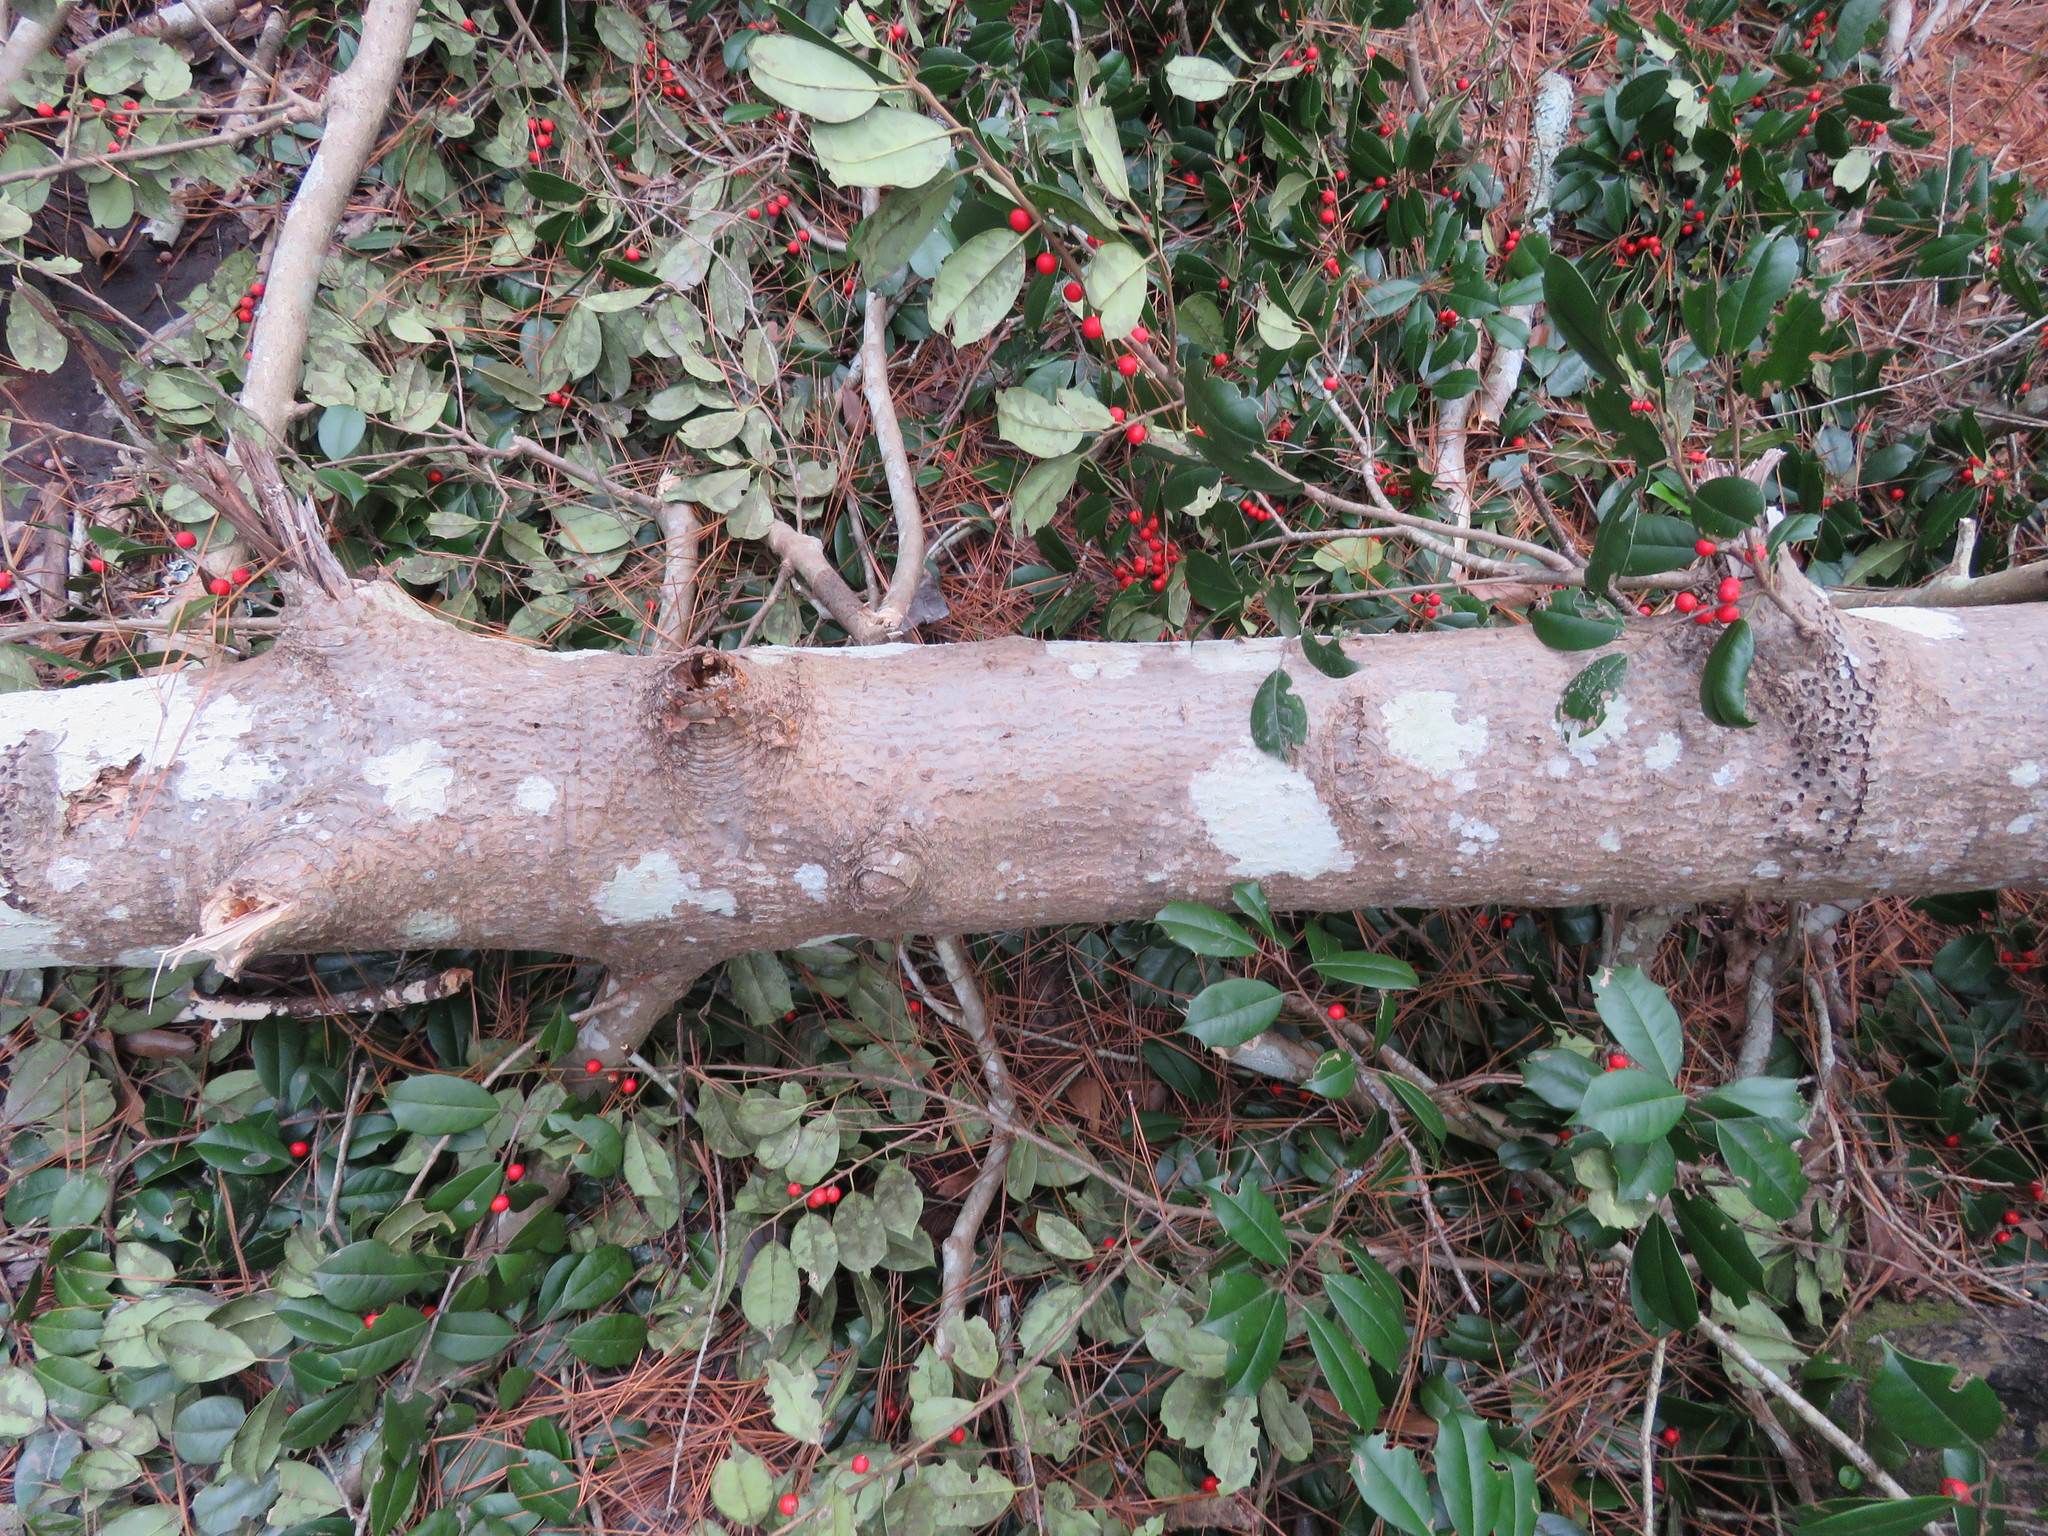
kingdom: Plantae
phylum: Tracheophyta
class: Magnoliopsida
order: Aquifoliales
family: Aquifoliaceae
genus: Ilex
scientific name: Ilex opaca
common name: American holly
